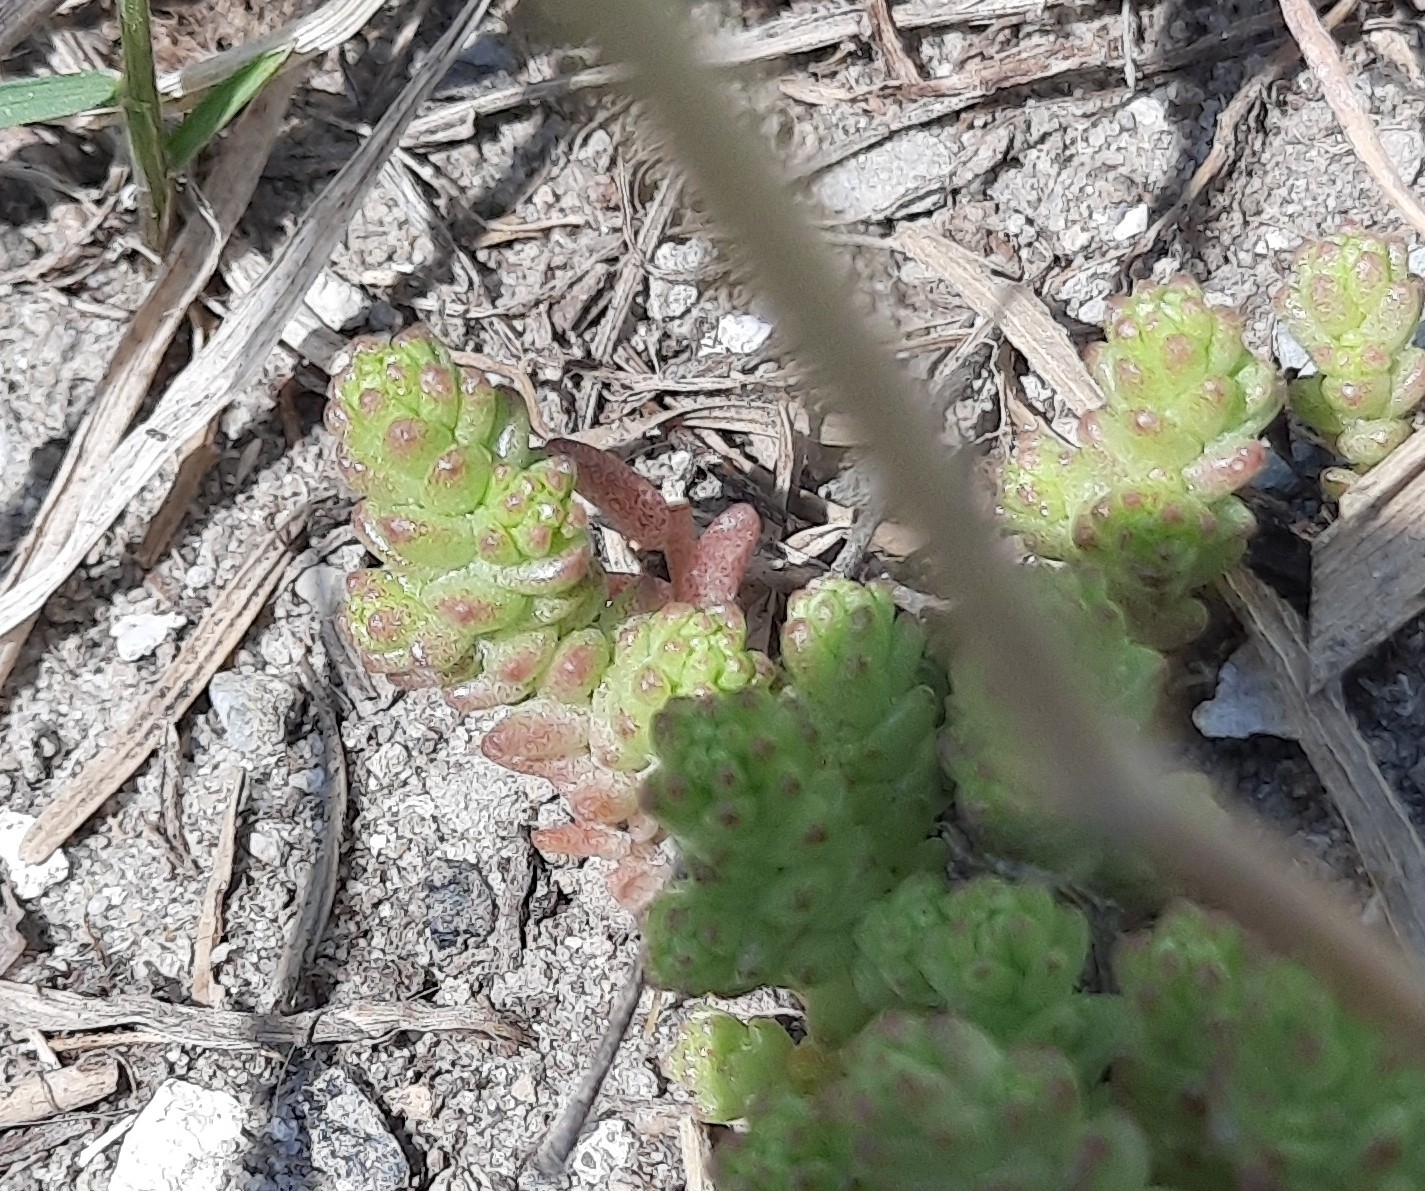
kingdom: Plantae
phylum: Tracheophyta
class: Magnoliopsida
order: Saxifragales
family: Crassulaceae
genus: Sedum
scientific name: Sedum acre
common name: Biting stonecrop
